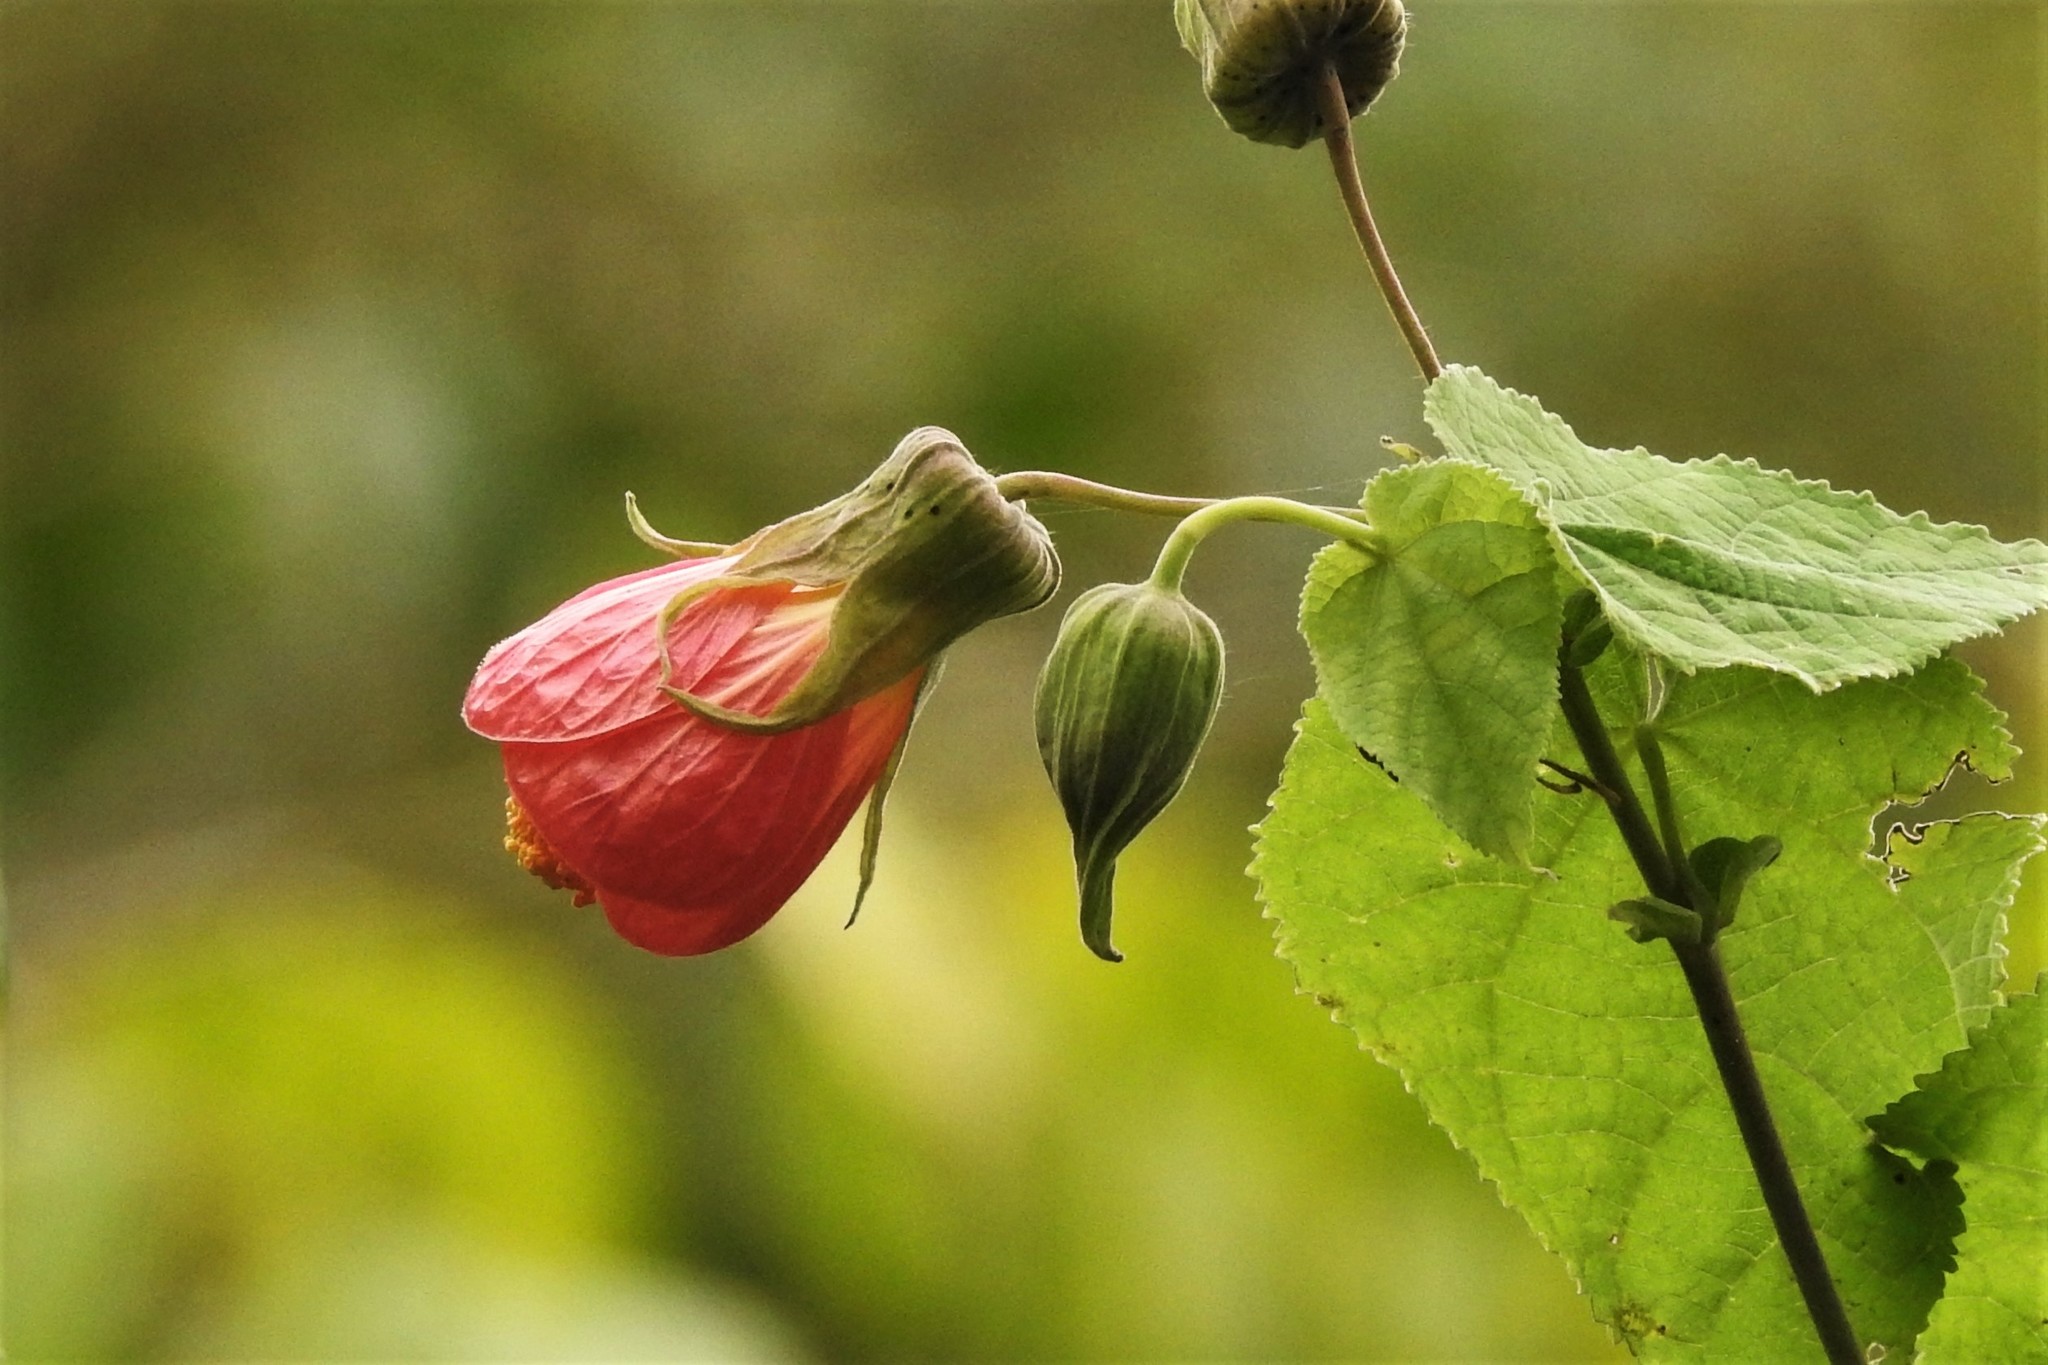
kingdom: Plantae
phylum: Tracheophyta
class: Magnoliopsida
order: Malvales
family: Malvaceae
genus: Callianthe
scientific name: Callianthe picta
